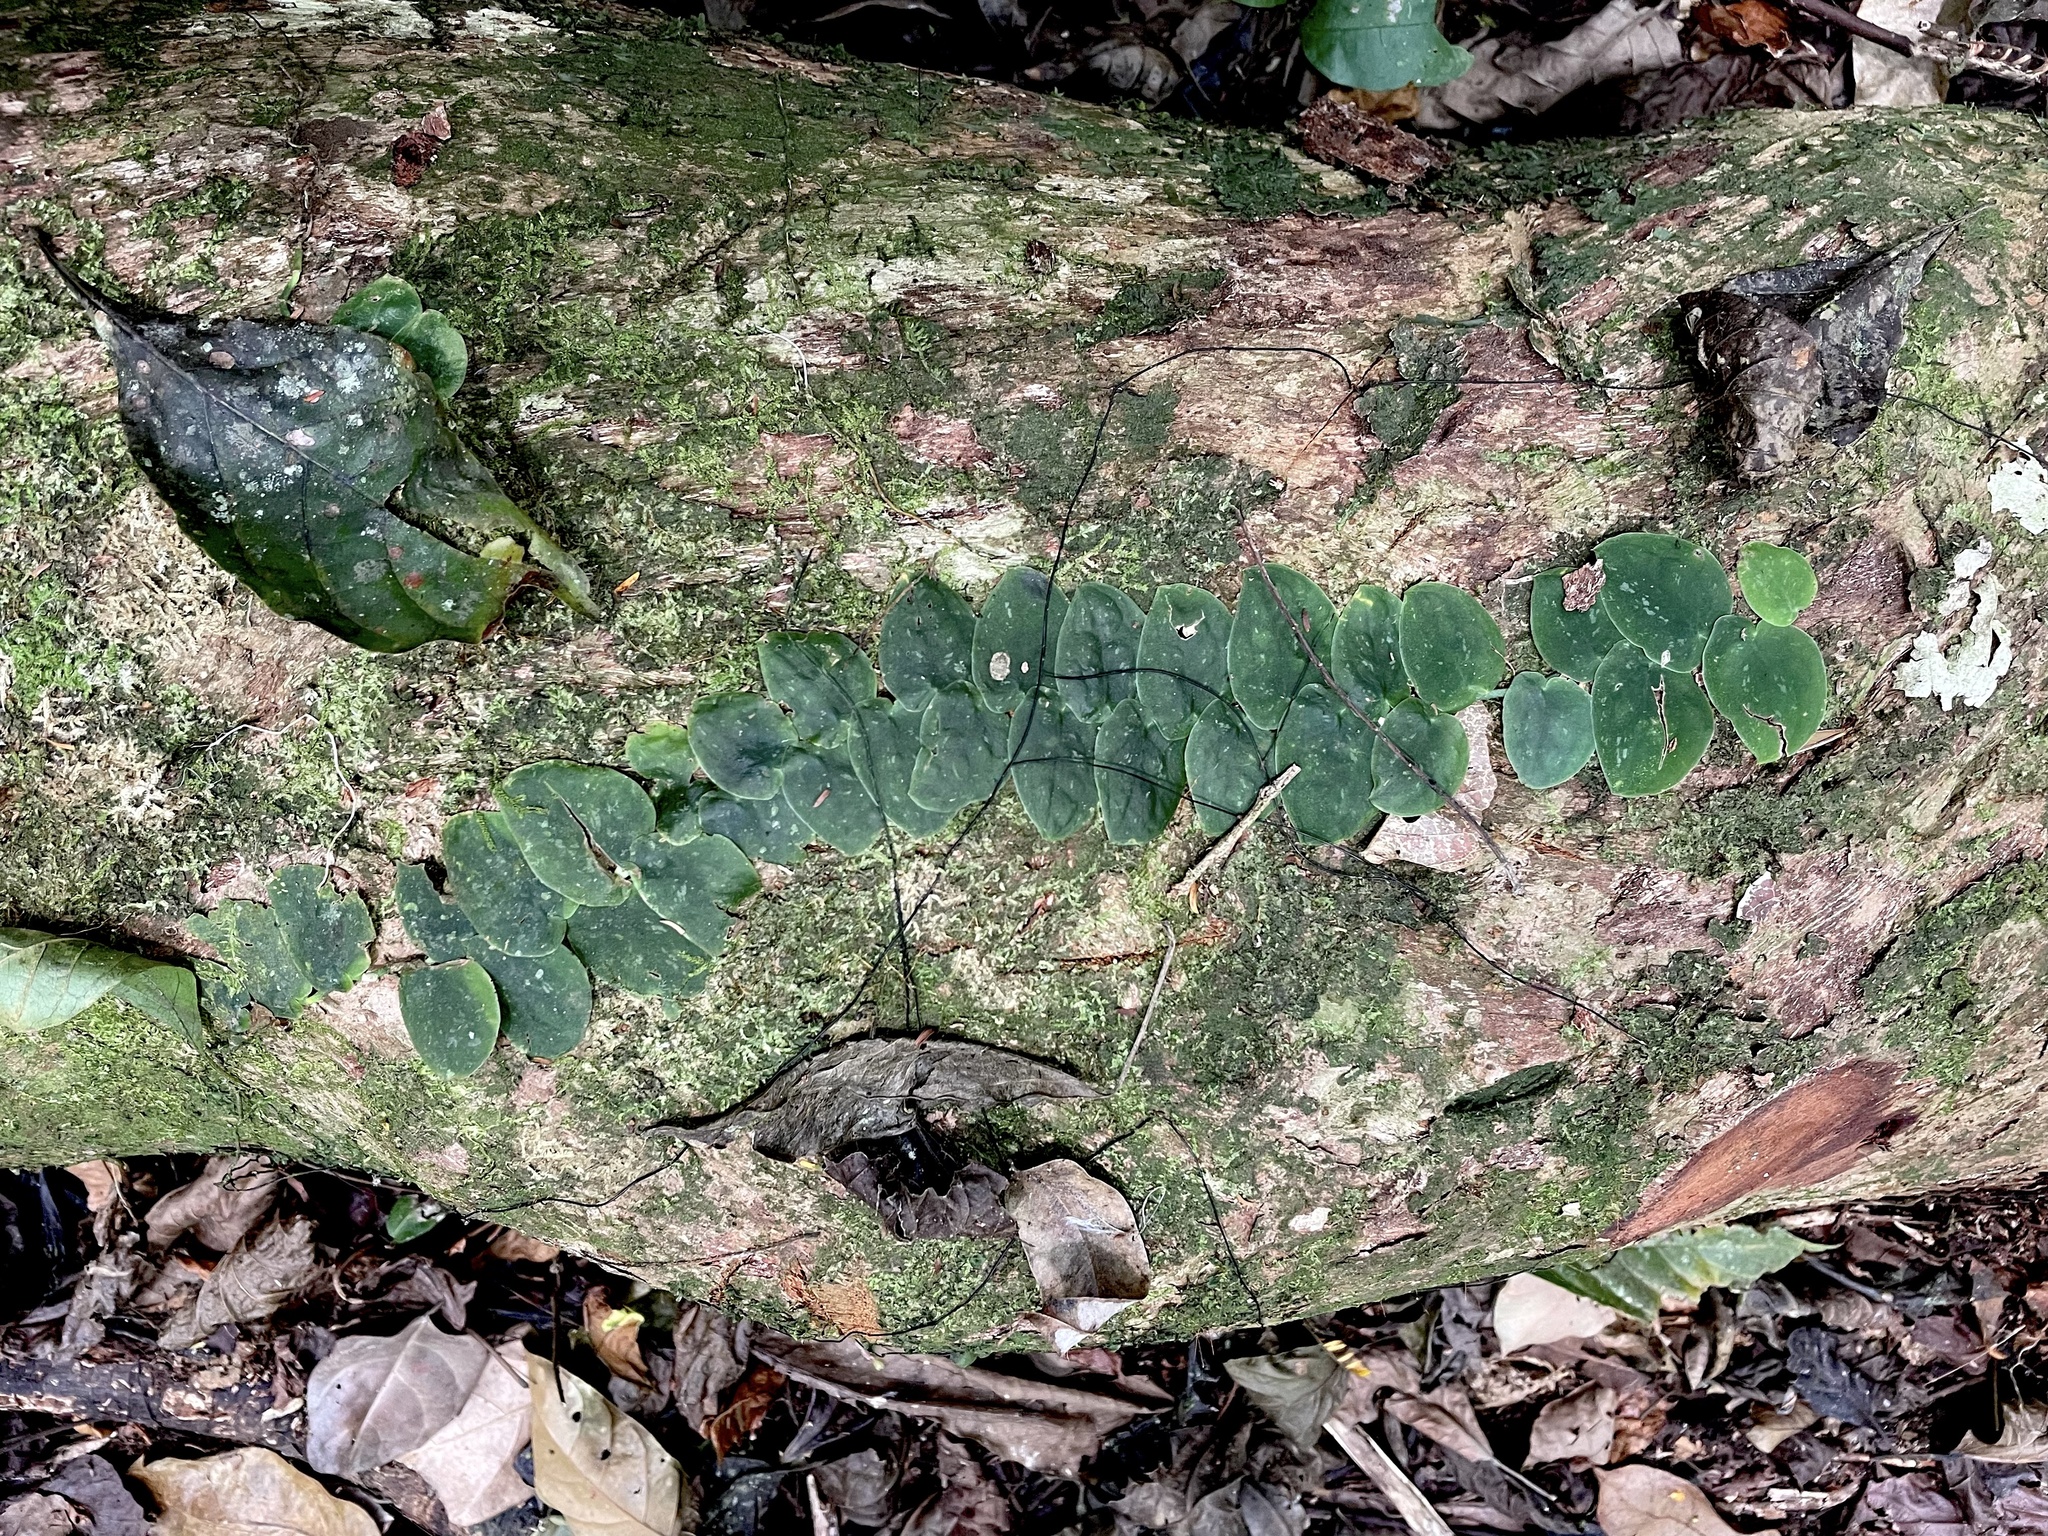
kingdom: Plantae
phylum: Tracheophyta
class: Liliopsida
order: Alismatales
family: Araceae
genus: Monstera
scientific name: Monstera punctulata
